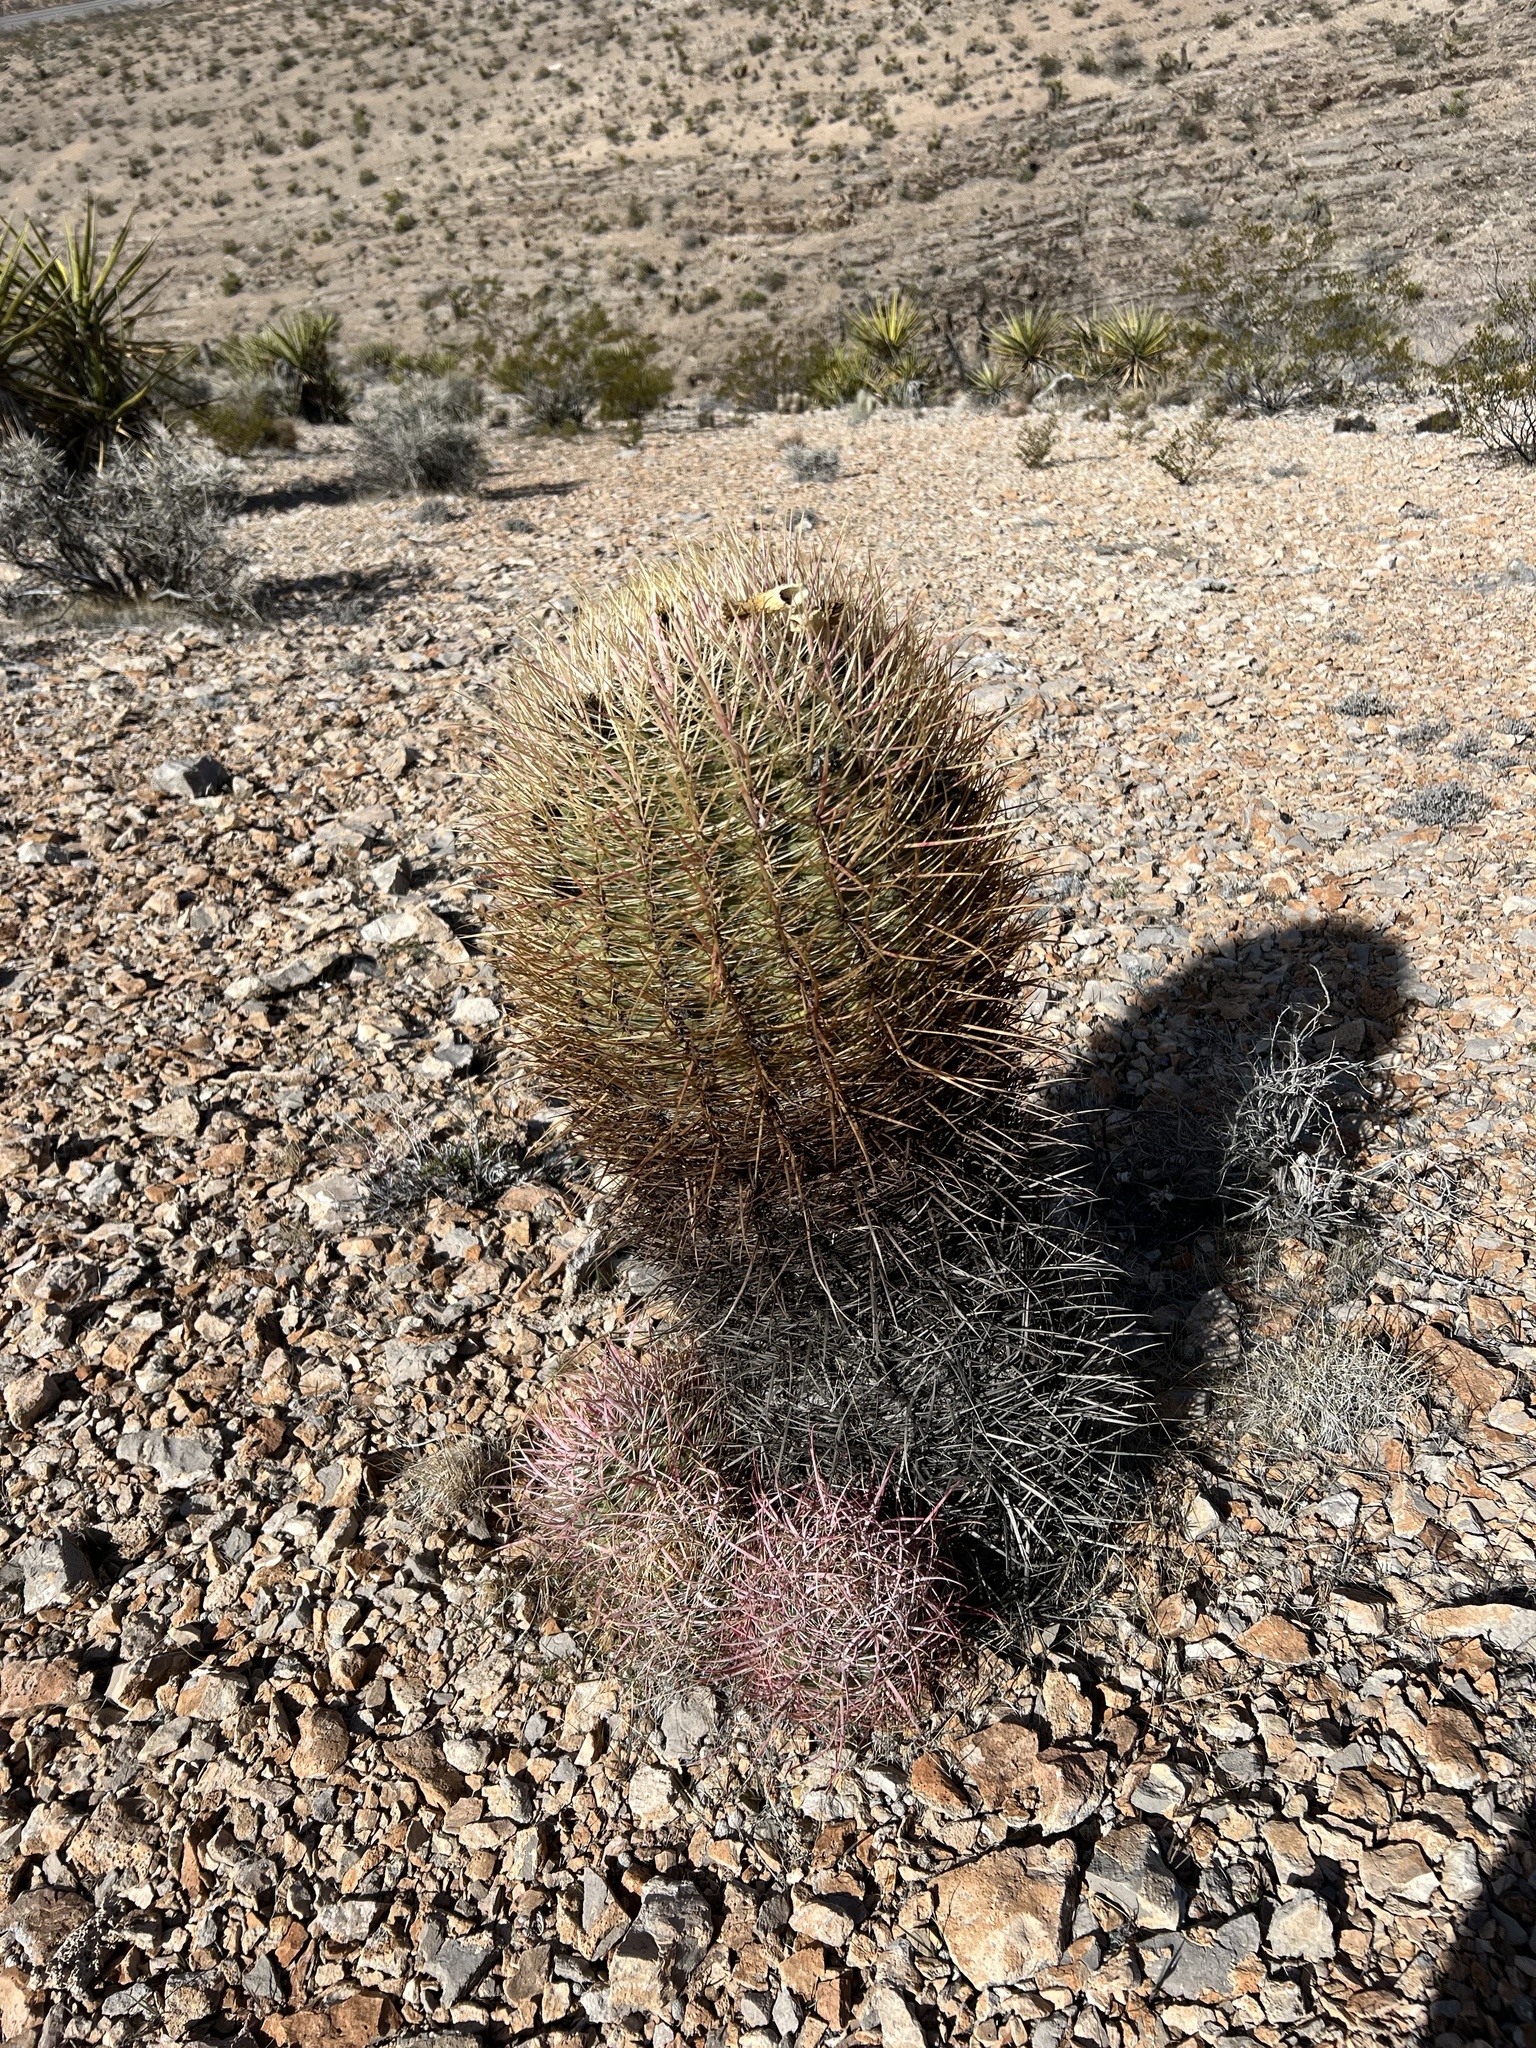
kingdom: Plantae
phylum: Tracheophyta
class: Magnoliopsida
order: Caryophyllales
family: Cactaceae
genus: Ferocactus
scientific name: Ferocactus cylindraceus
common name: California barrel cactus
